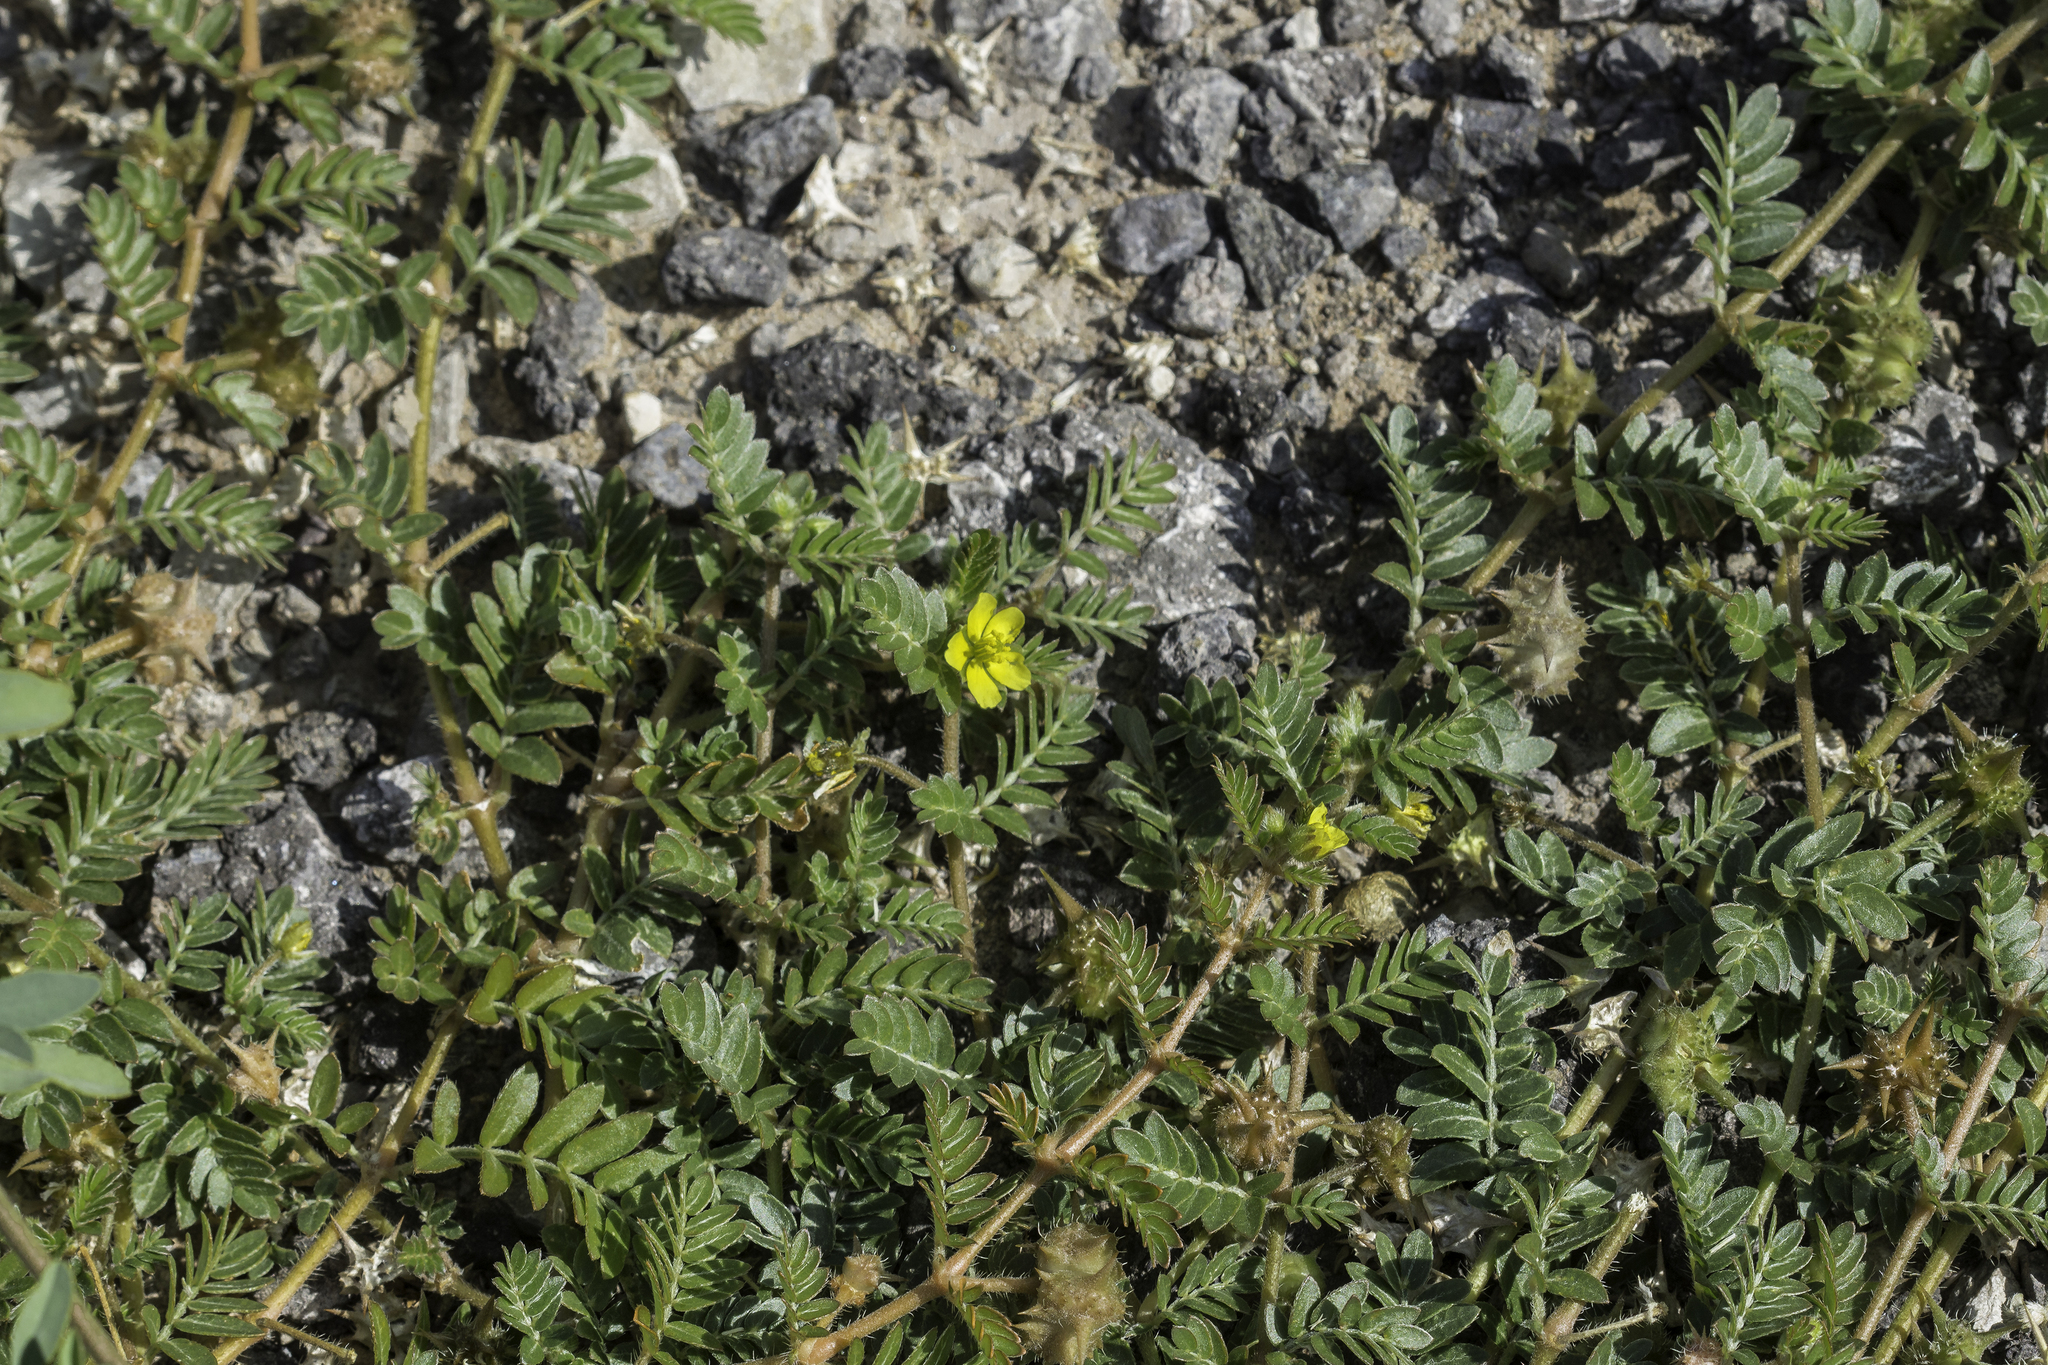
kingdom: Plantae
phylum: Tracheophyta
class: Magnoliopsida
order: Zygophyllales
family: Zygophyllaceae
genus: Tribulus
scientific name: Tribulus terrestris
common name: Puncturevine
